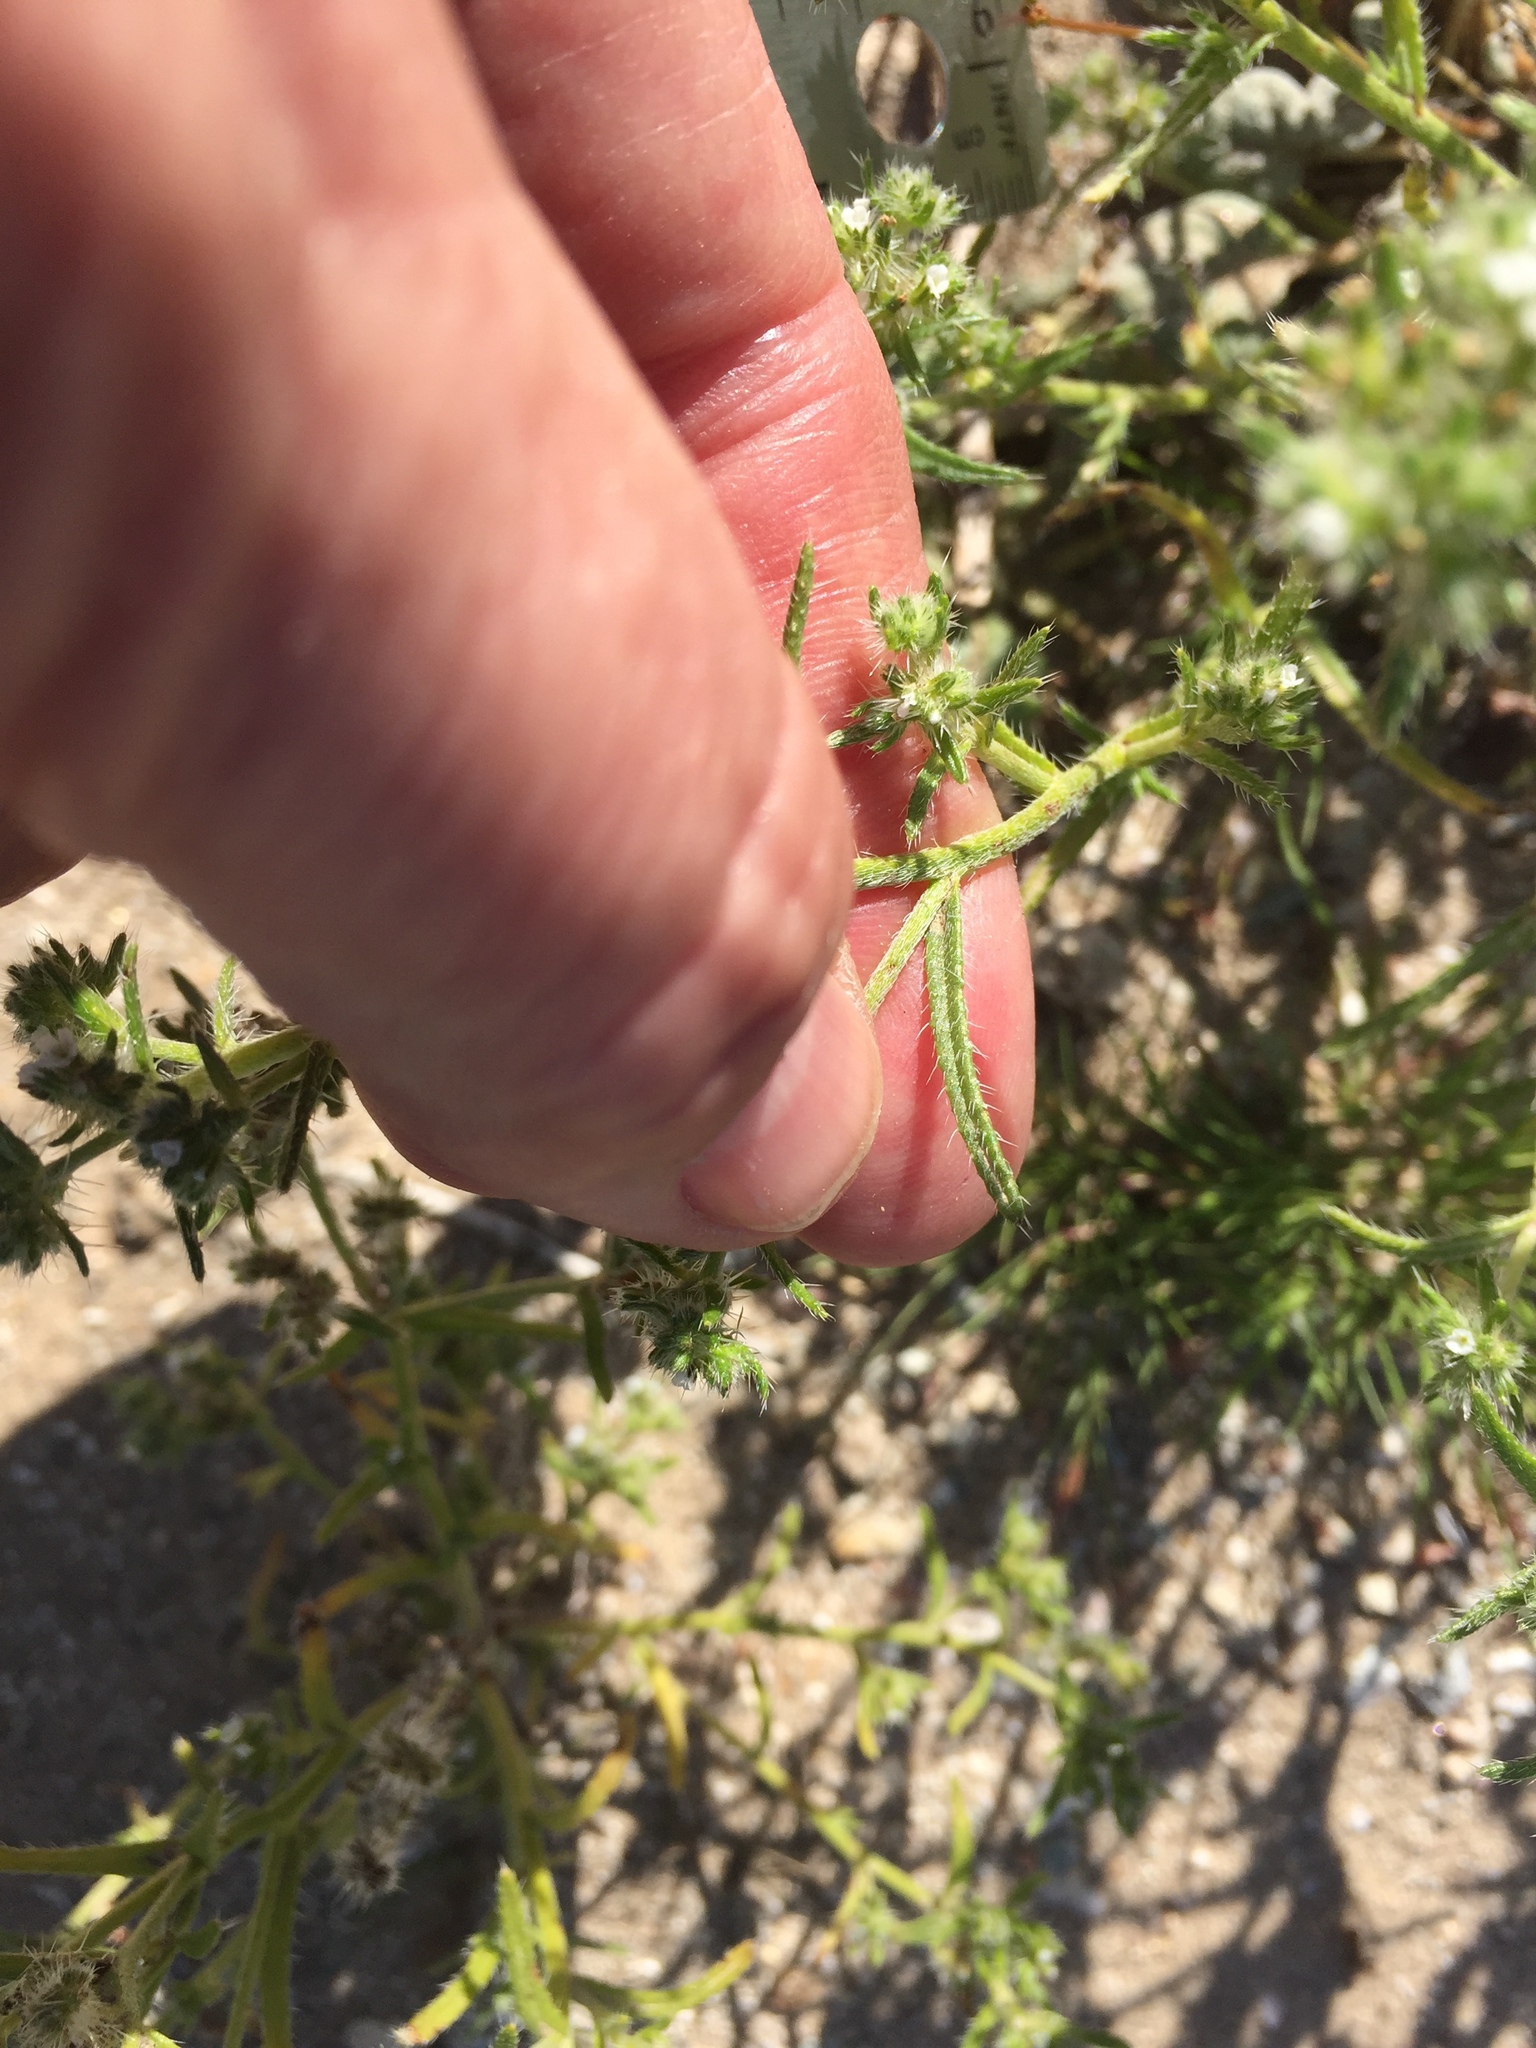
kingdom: Plantae
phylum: Tracheophyta
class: Magnoliopsida
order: Boraginales
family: Boraginaceae
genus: Cryptantha
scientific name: Cryptantha maritima
